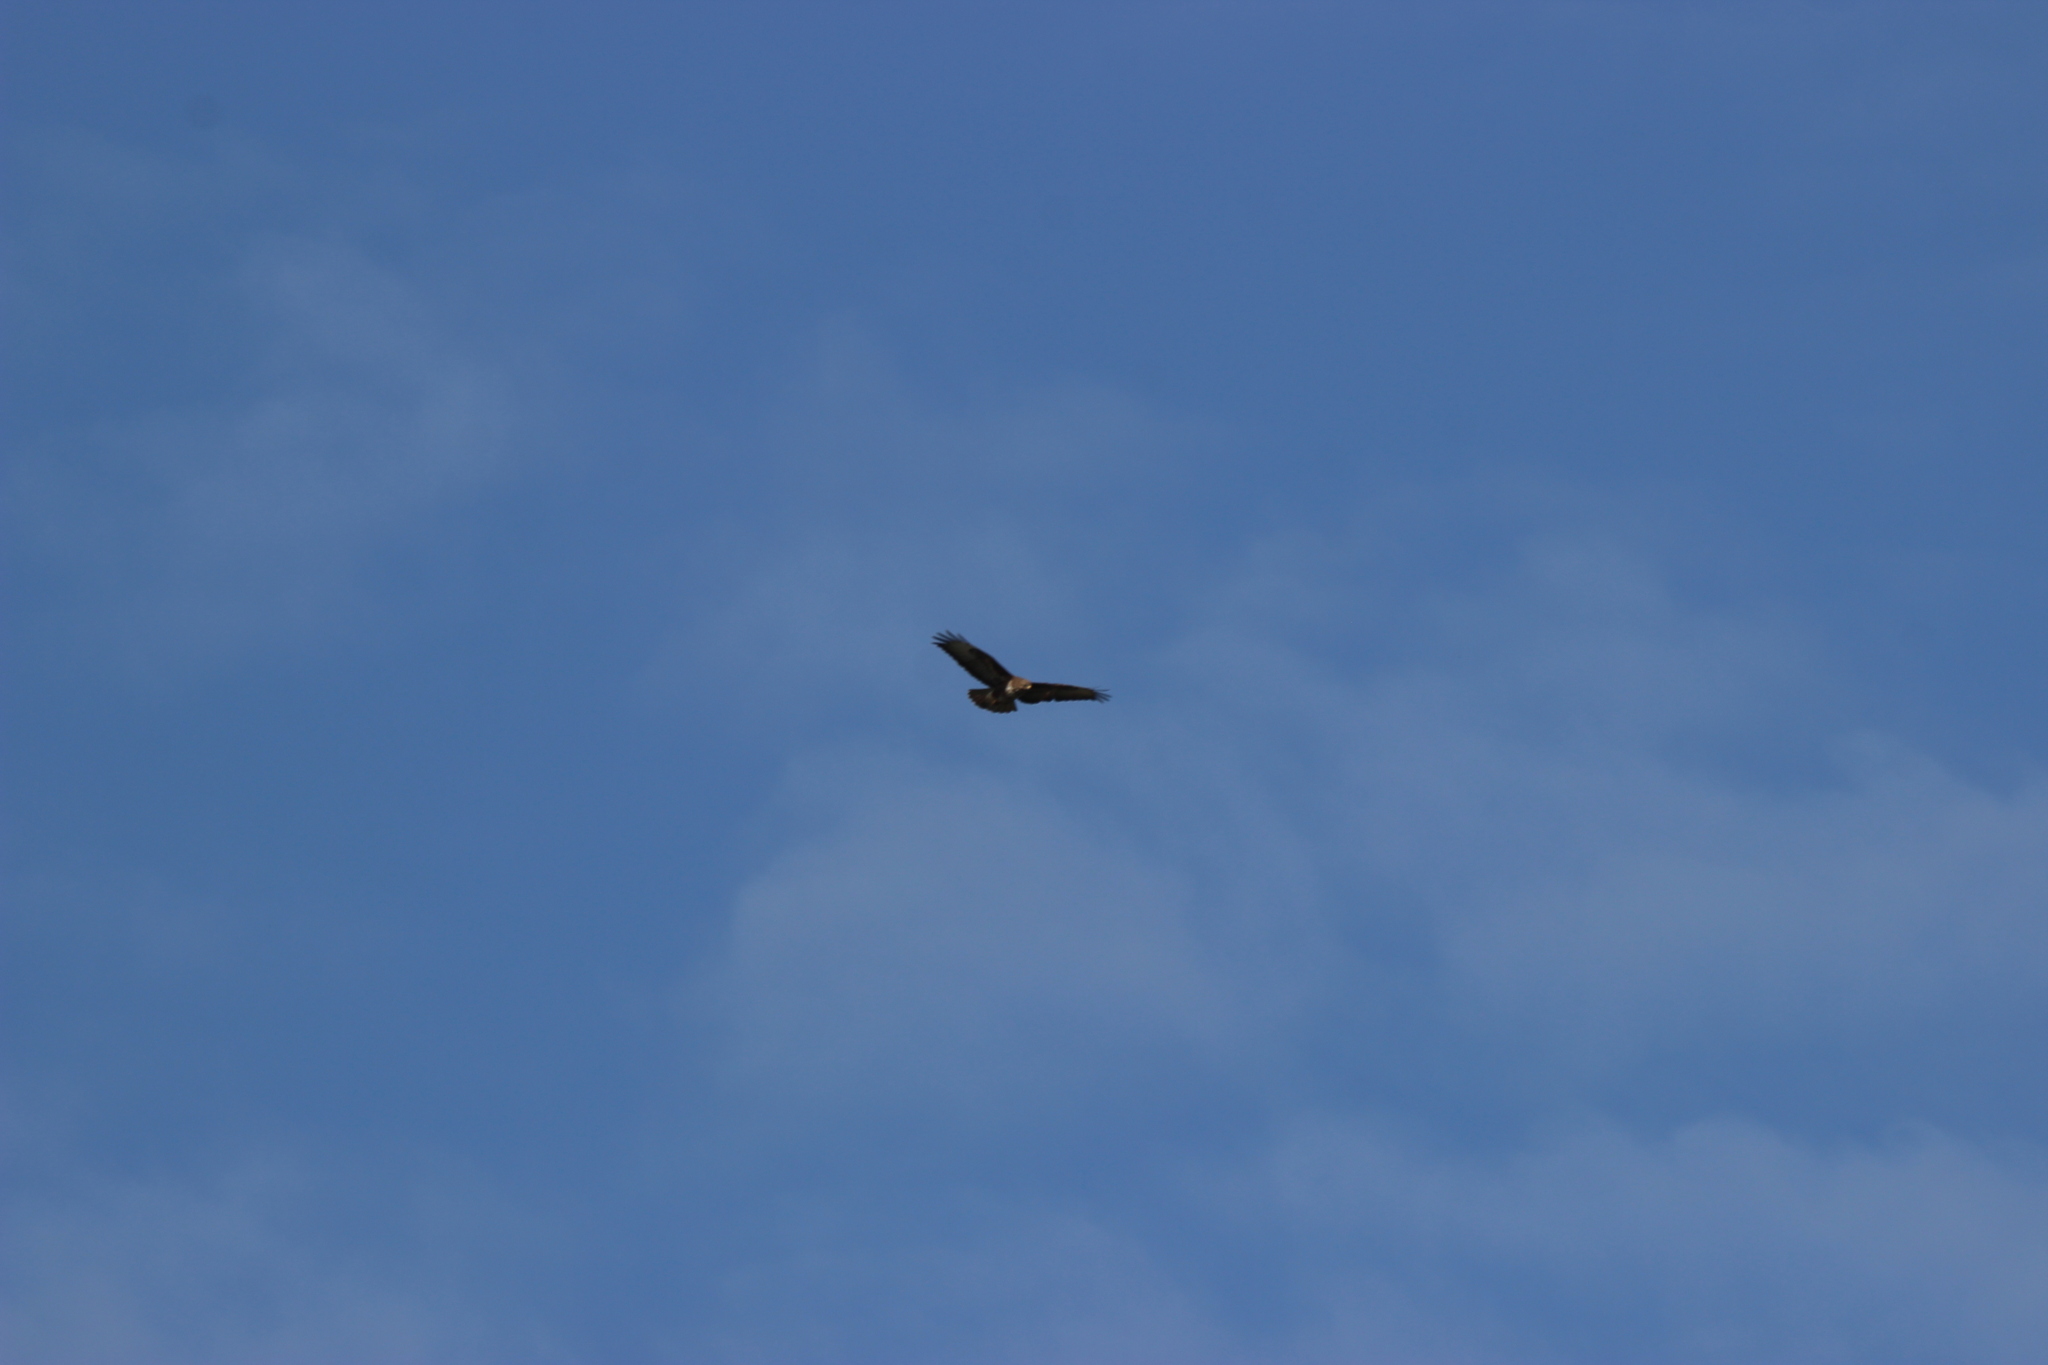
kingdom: Animalia
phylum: Chordata
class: Aves
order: Accipitriformes
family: Accipitridae
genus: Buteo
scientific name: Buteo buteo
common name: Common buzzard
